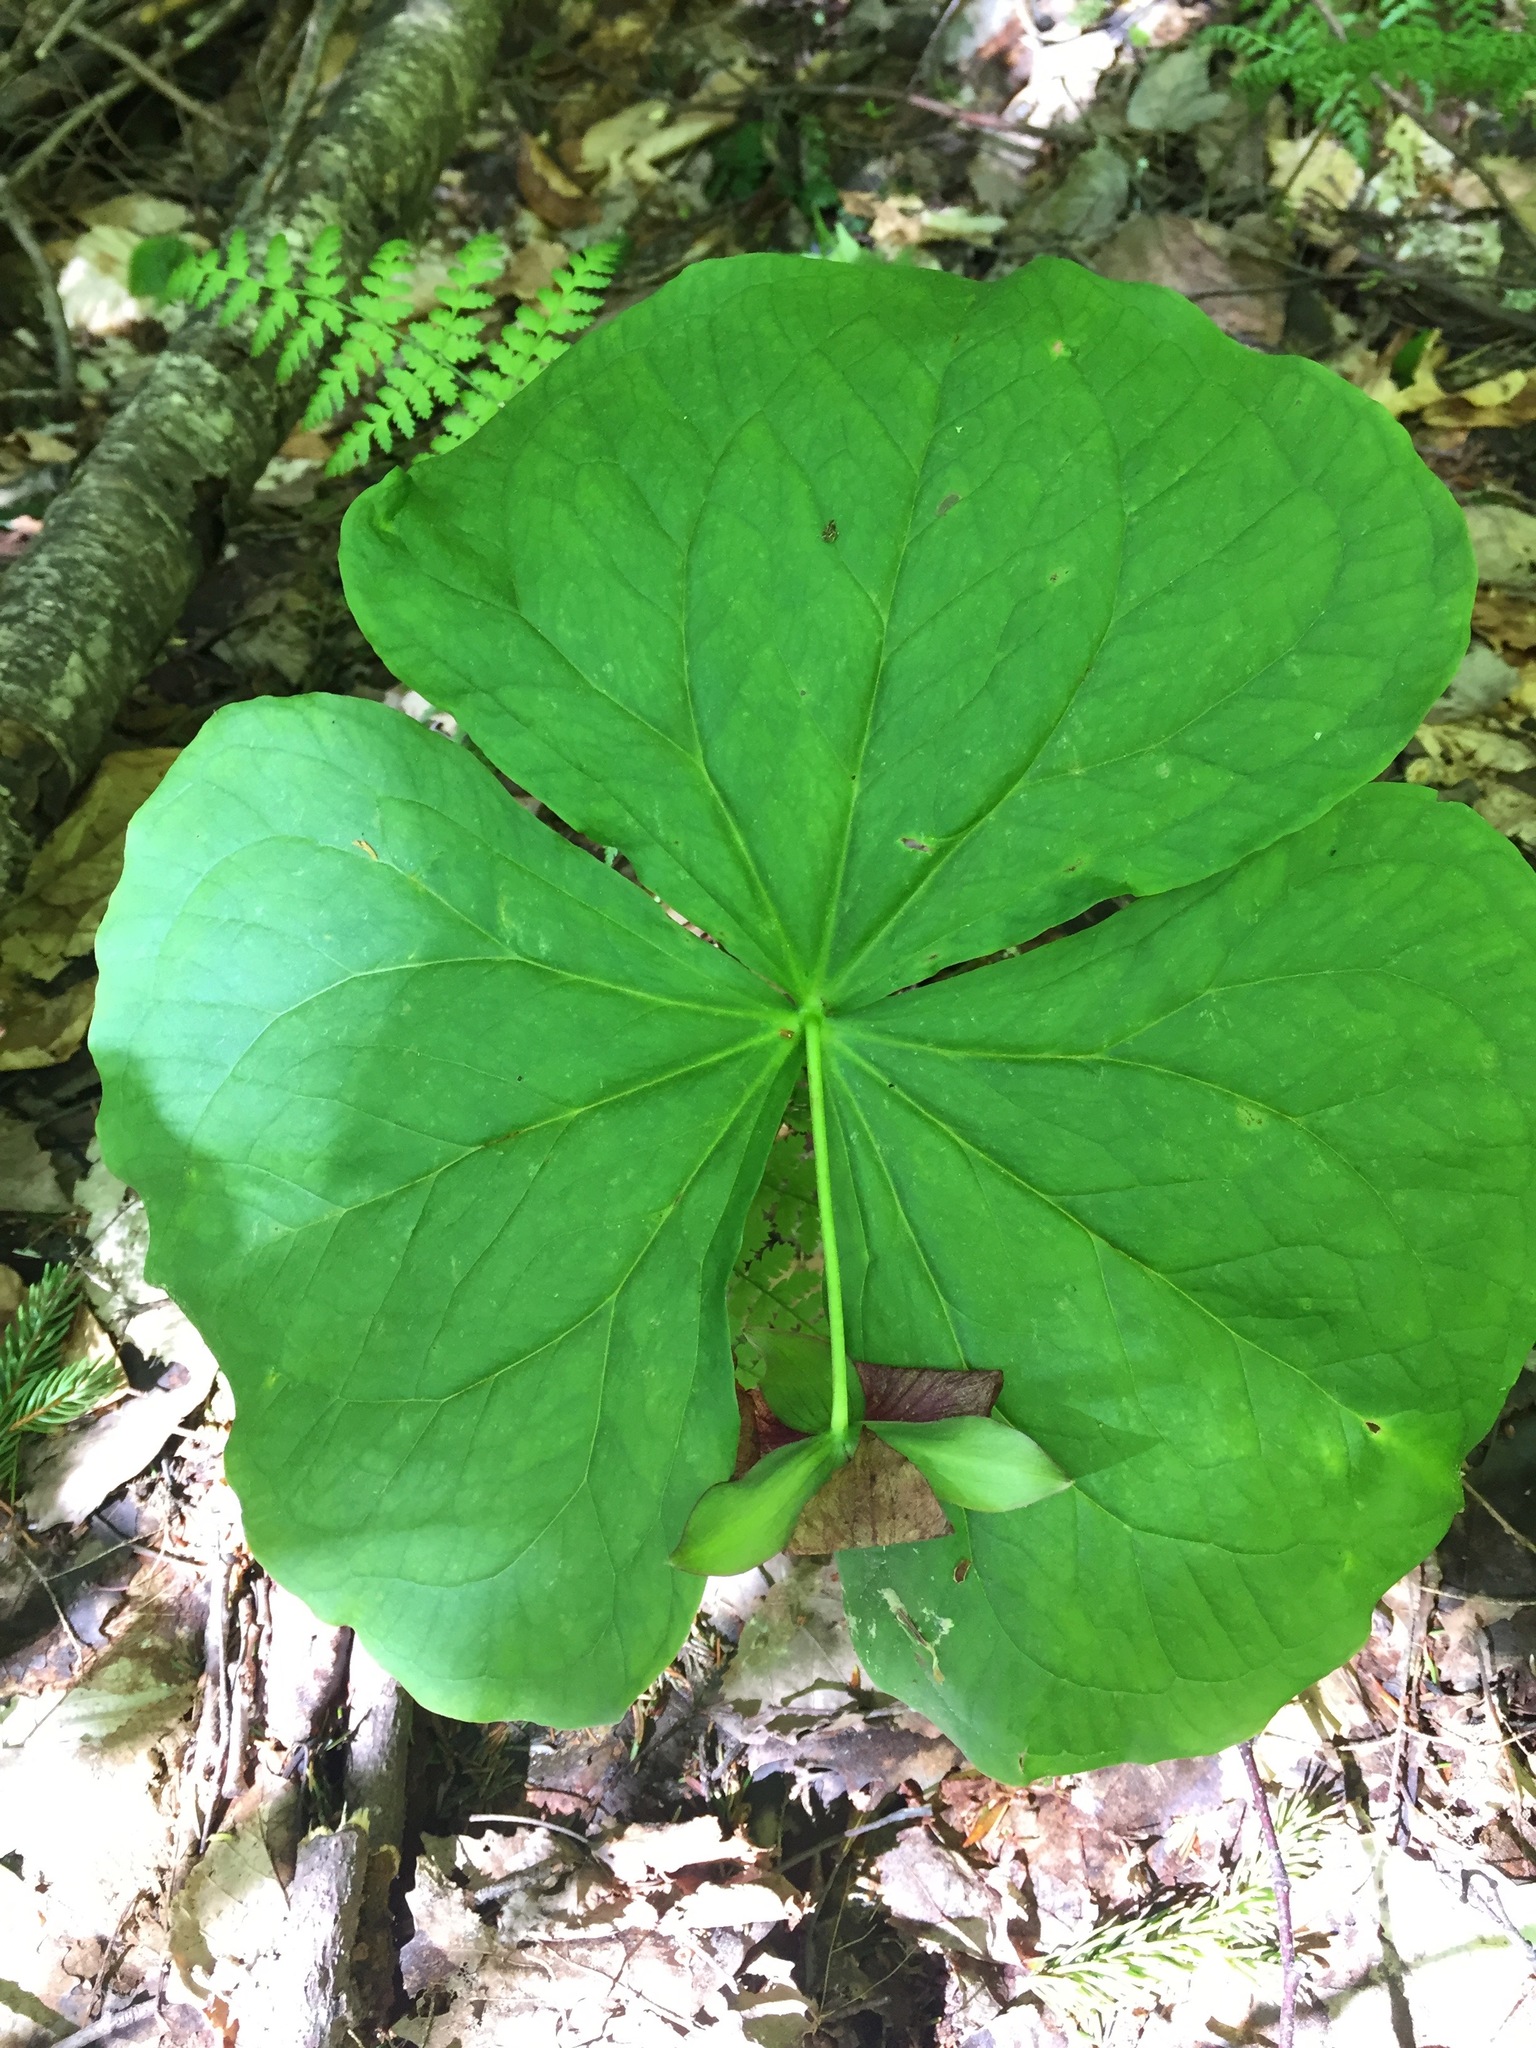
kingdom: Plantae
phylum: Tracheophyta
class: Liliopsida
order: Liliales
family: Melanthiaceae
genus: Trillium
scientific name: Trillium erectum
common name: Purple trillium
